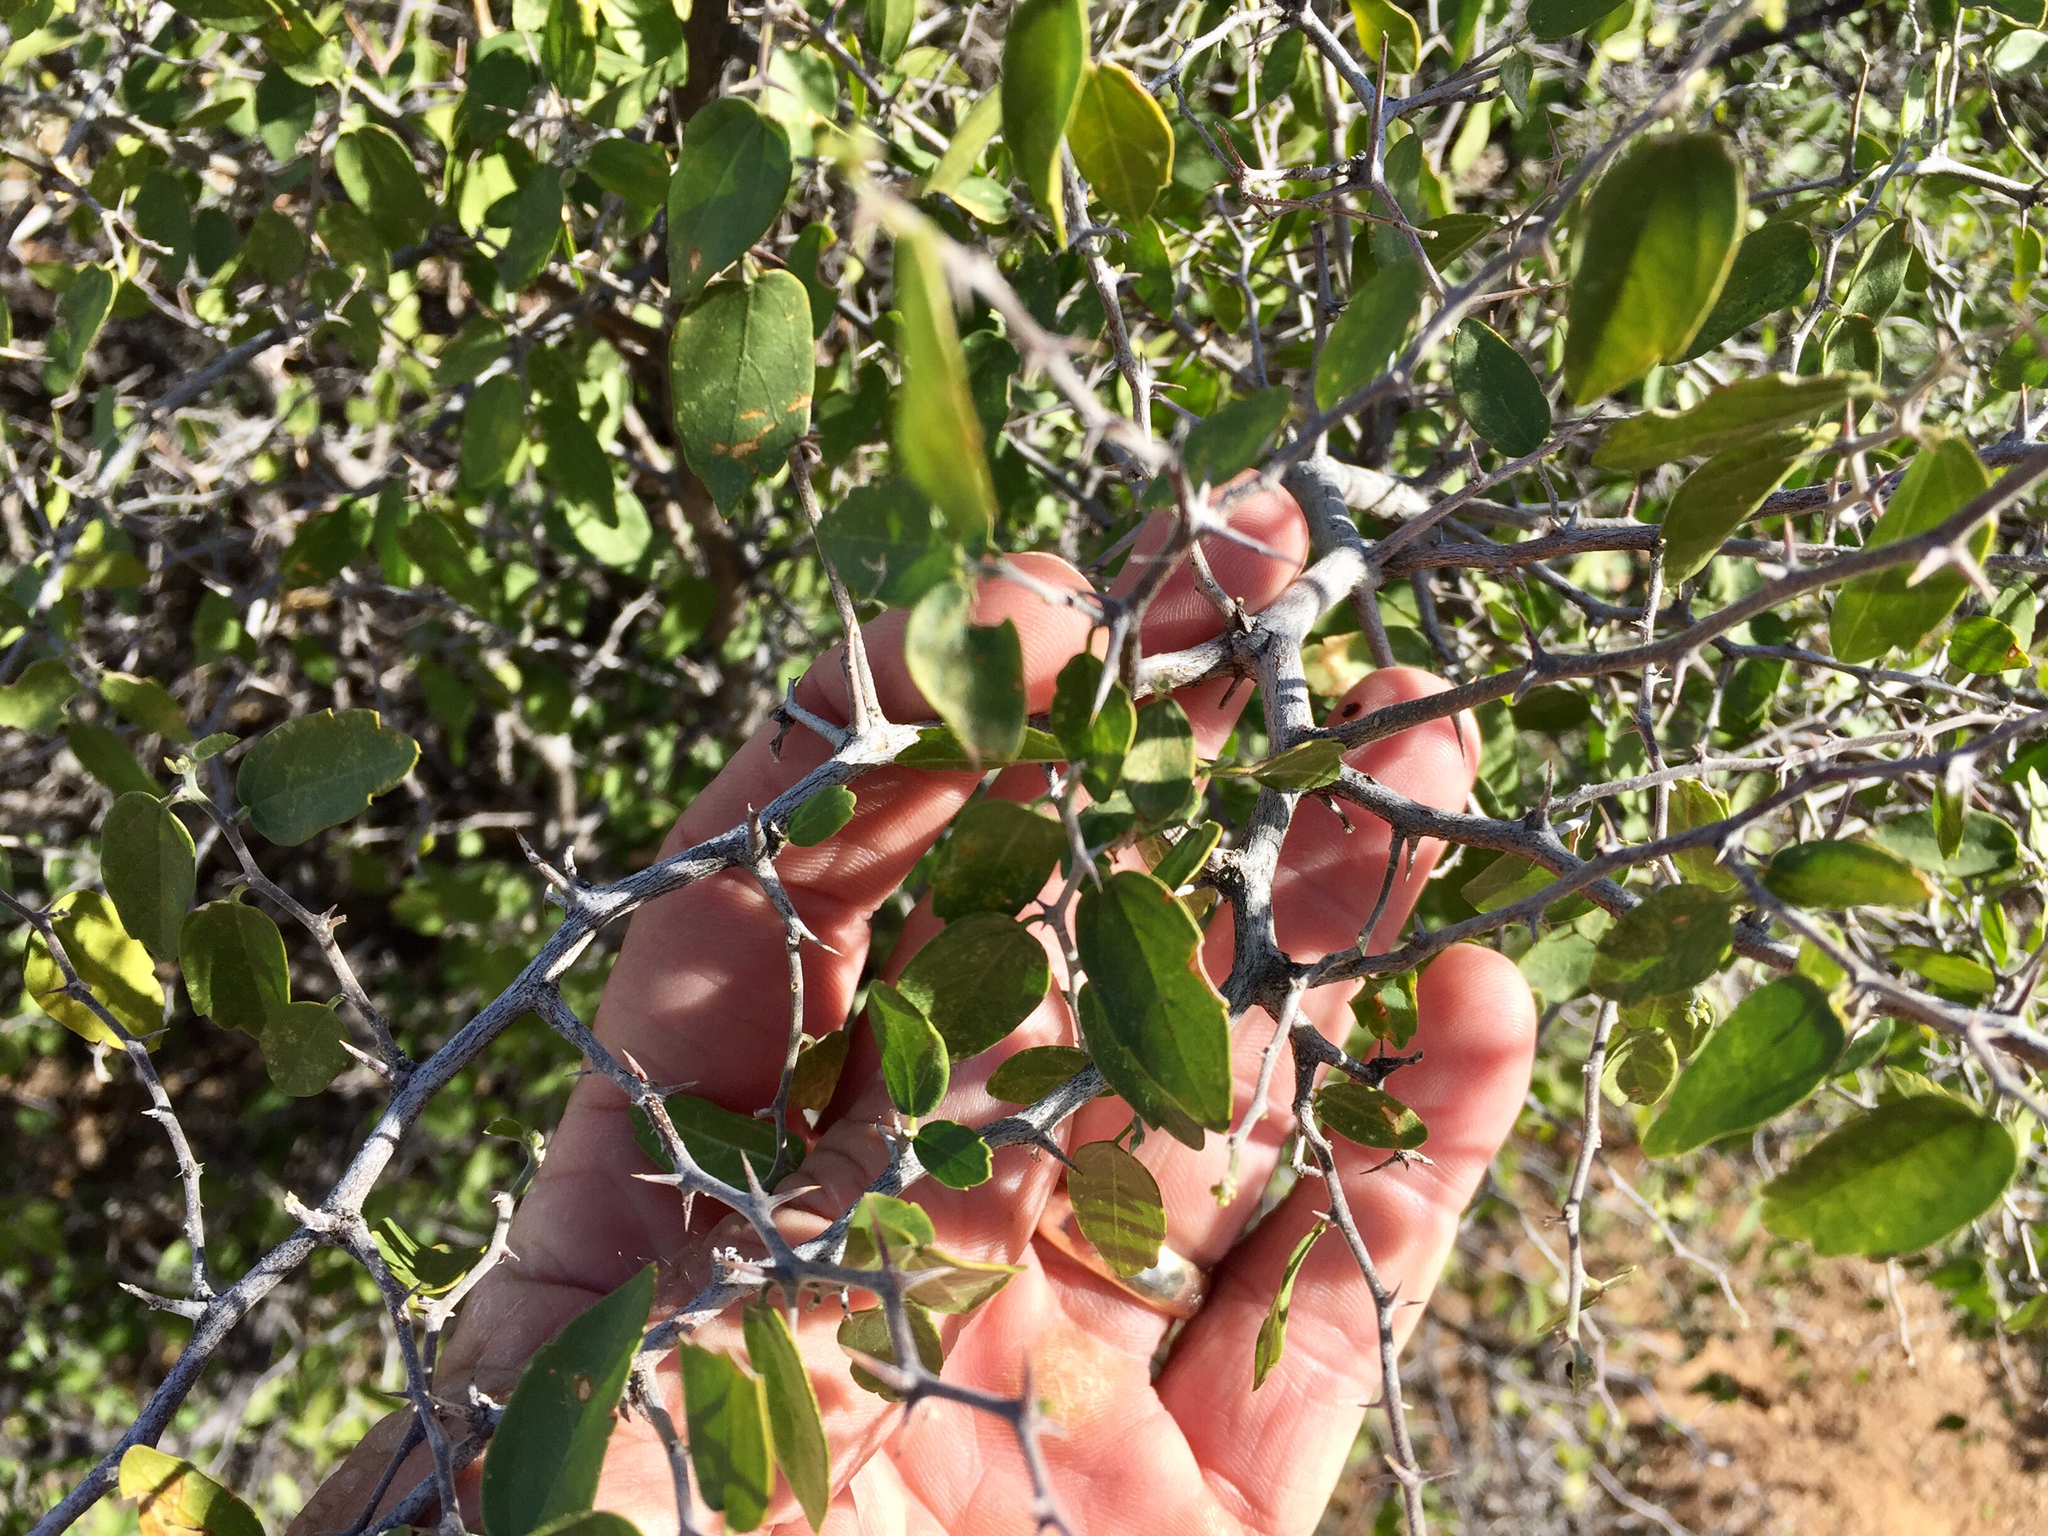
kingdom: Plantae
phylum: Tracheophyta
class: Magnoliopsida
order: Rosales
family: Cannabaceae
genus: Celtis
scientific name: Celtis pallida
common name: Desert hackberry
